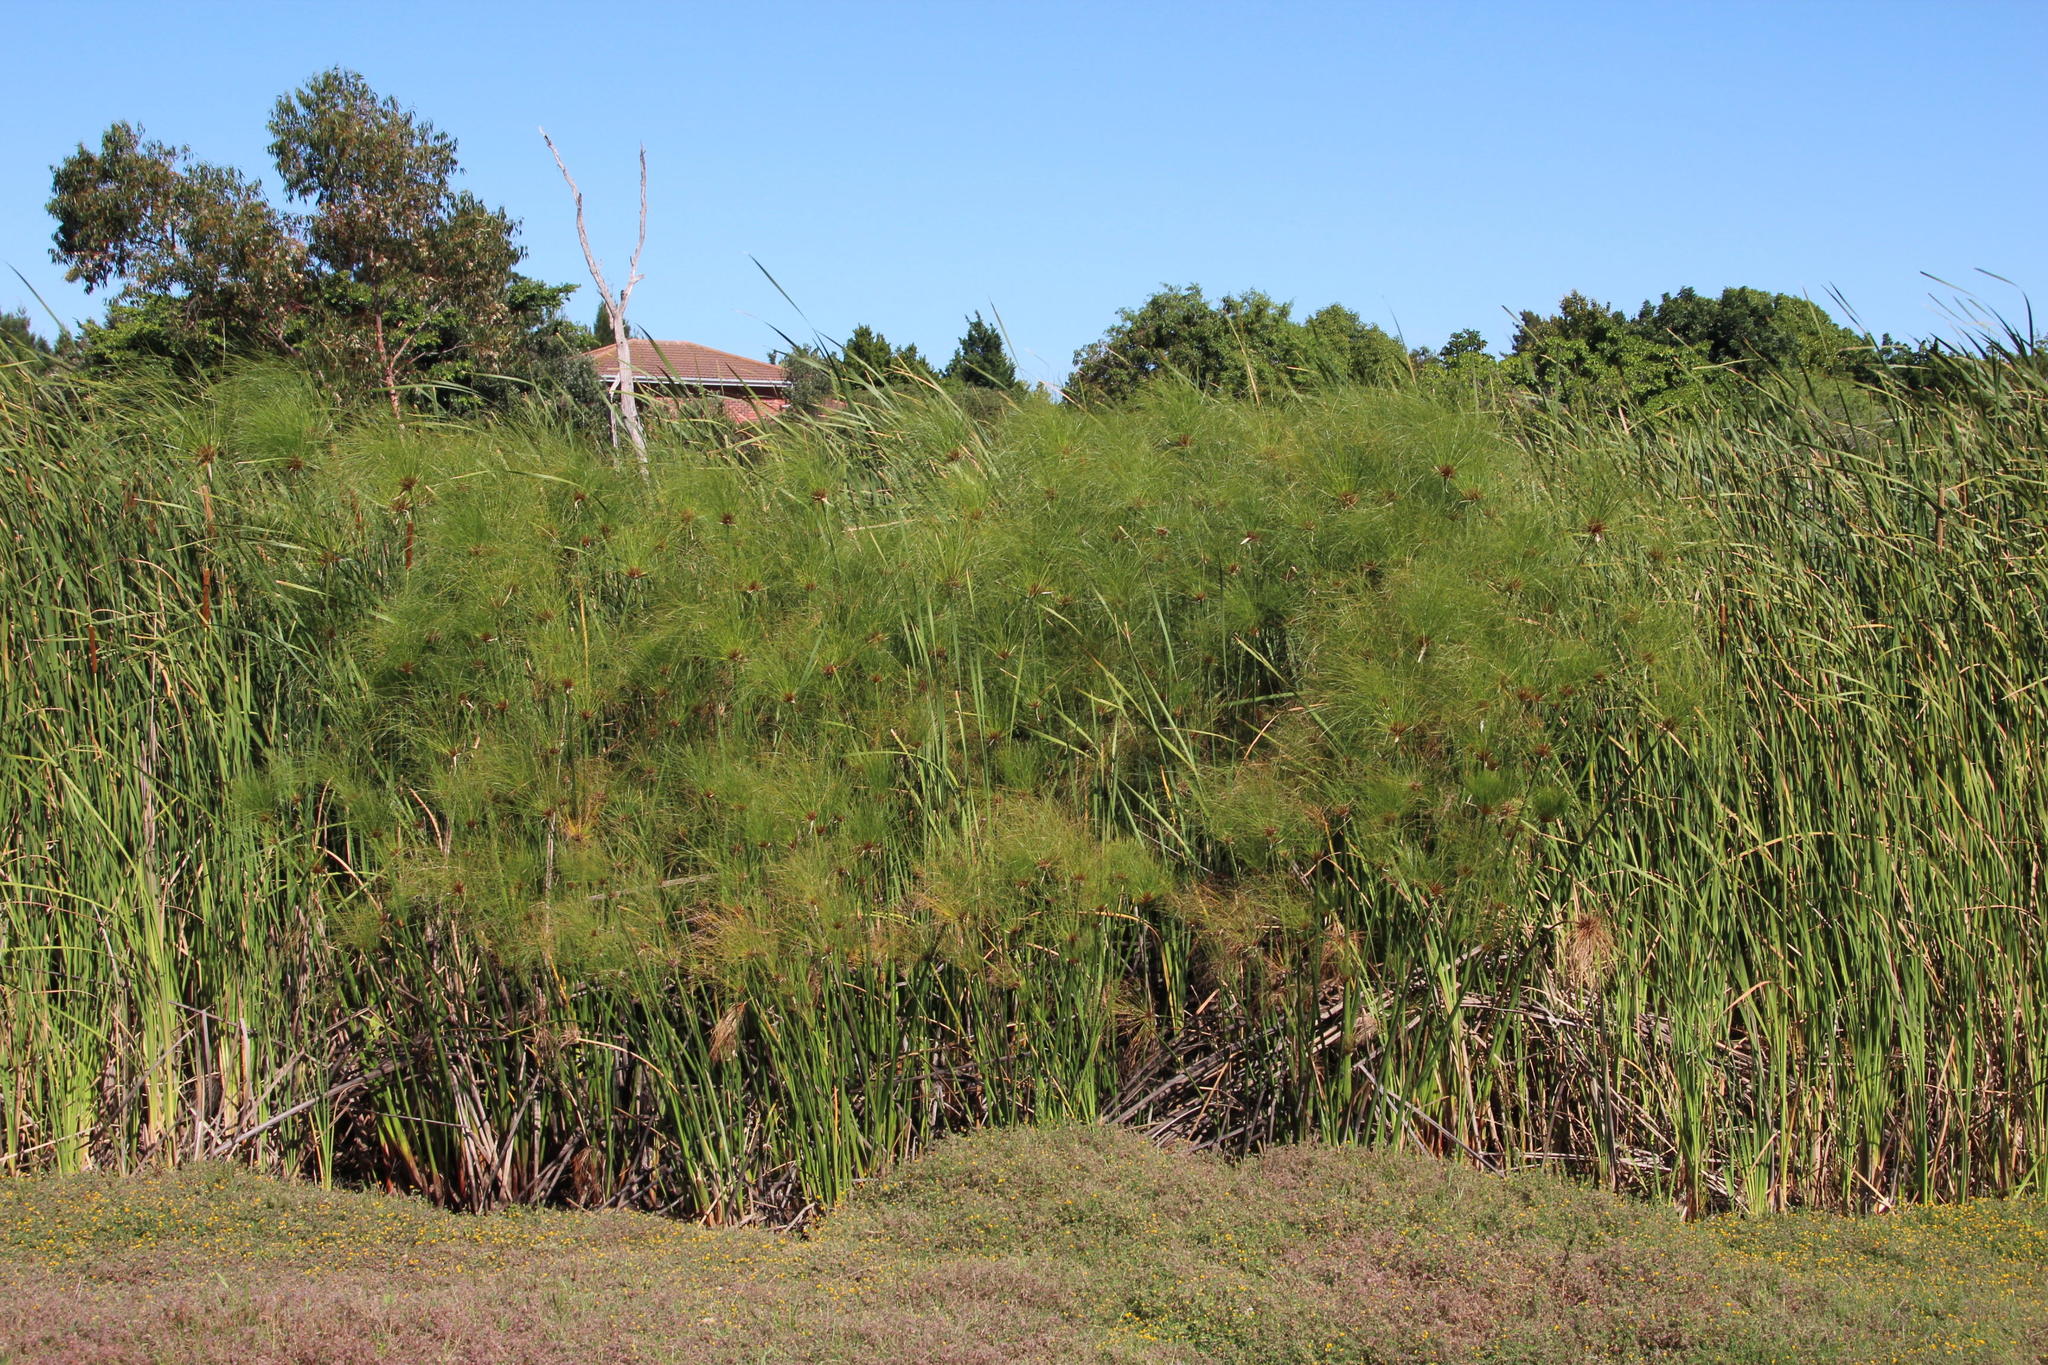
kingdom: Plantae
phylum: Tracheophyta
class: Liliopsida
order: Poales
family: Cyperaceae
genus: Cyperus
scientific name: Cyperus papyrus
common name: Papyrus
